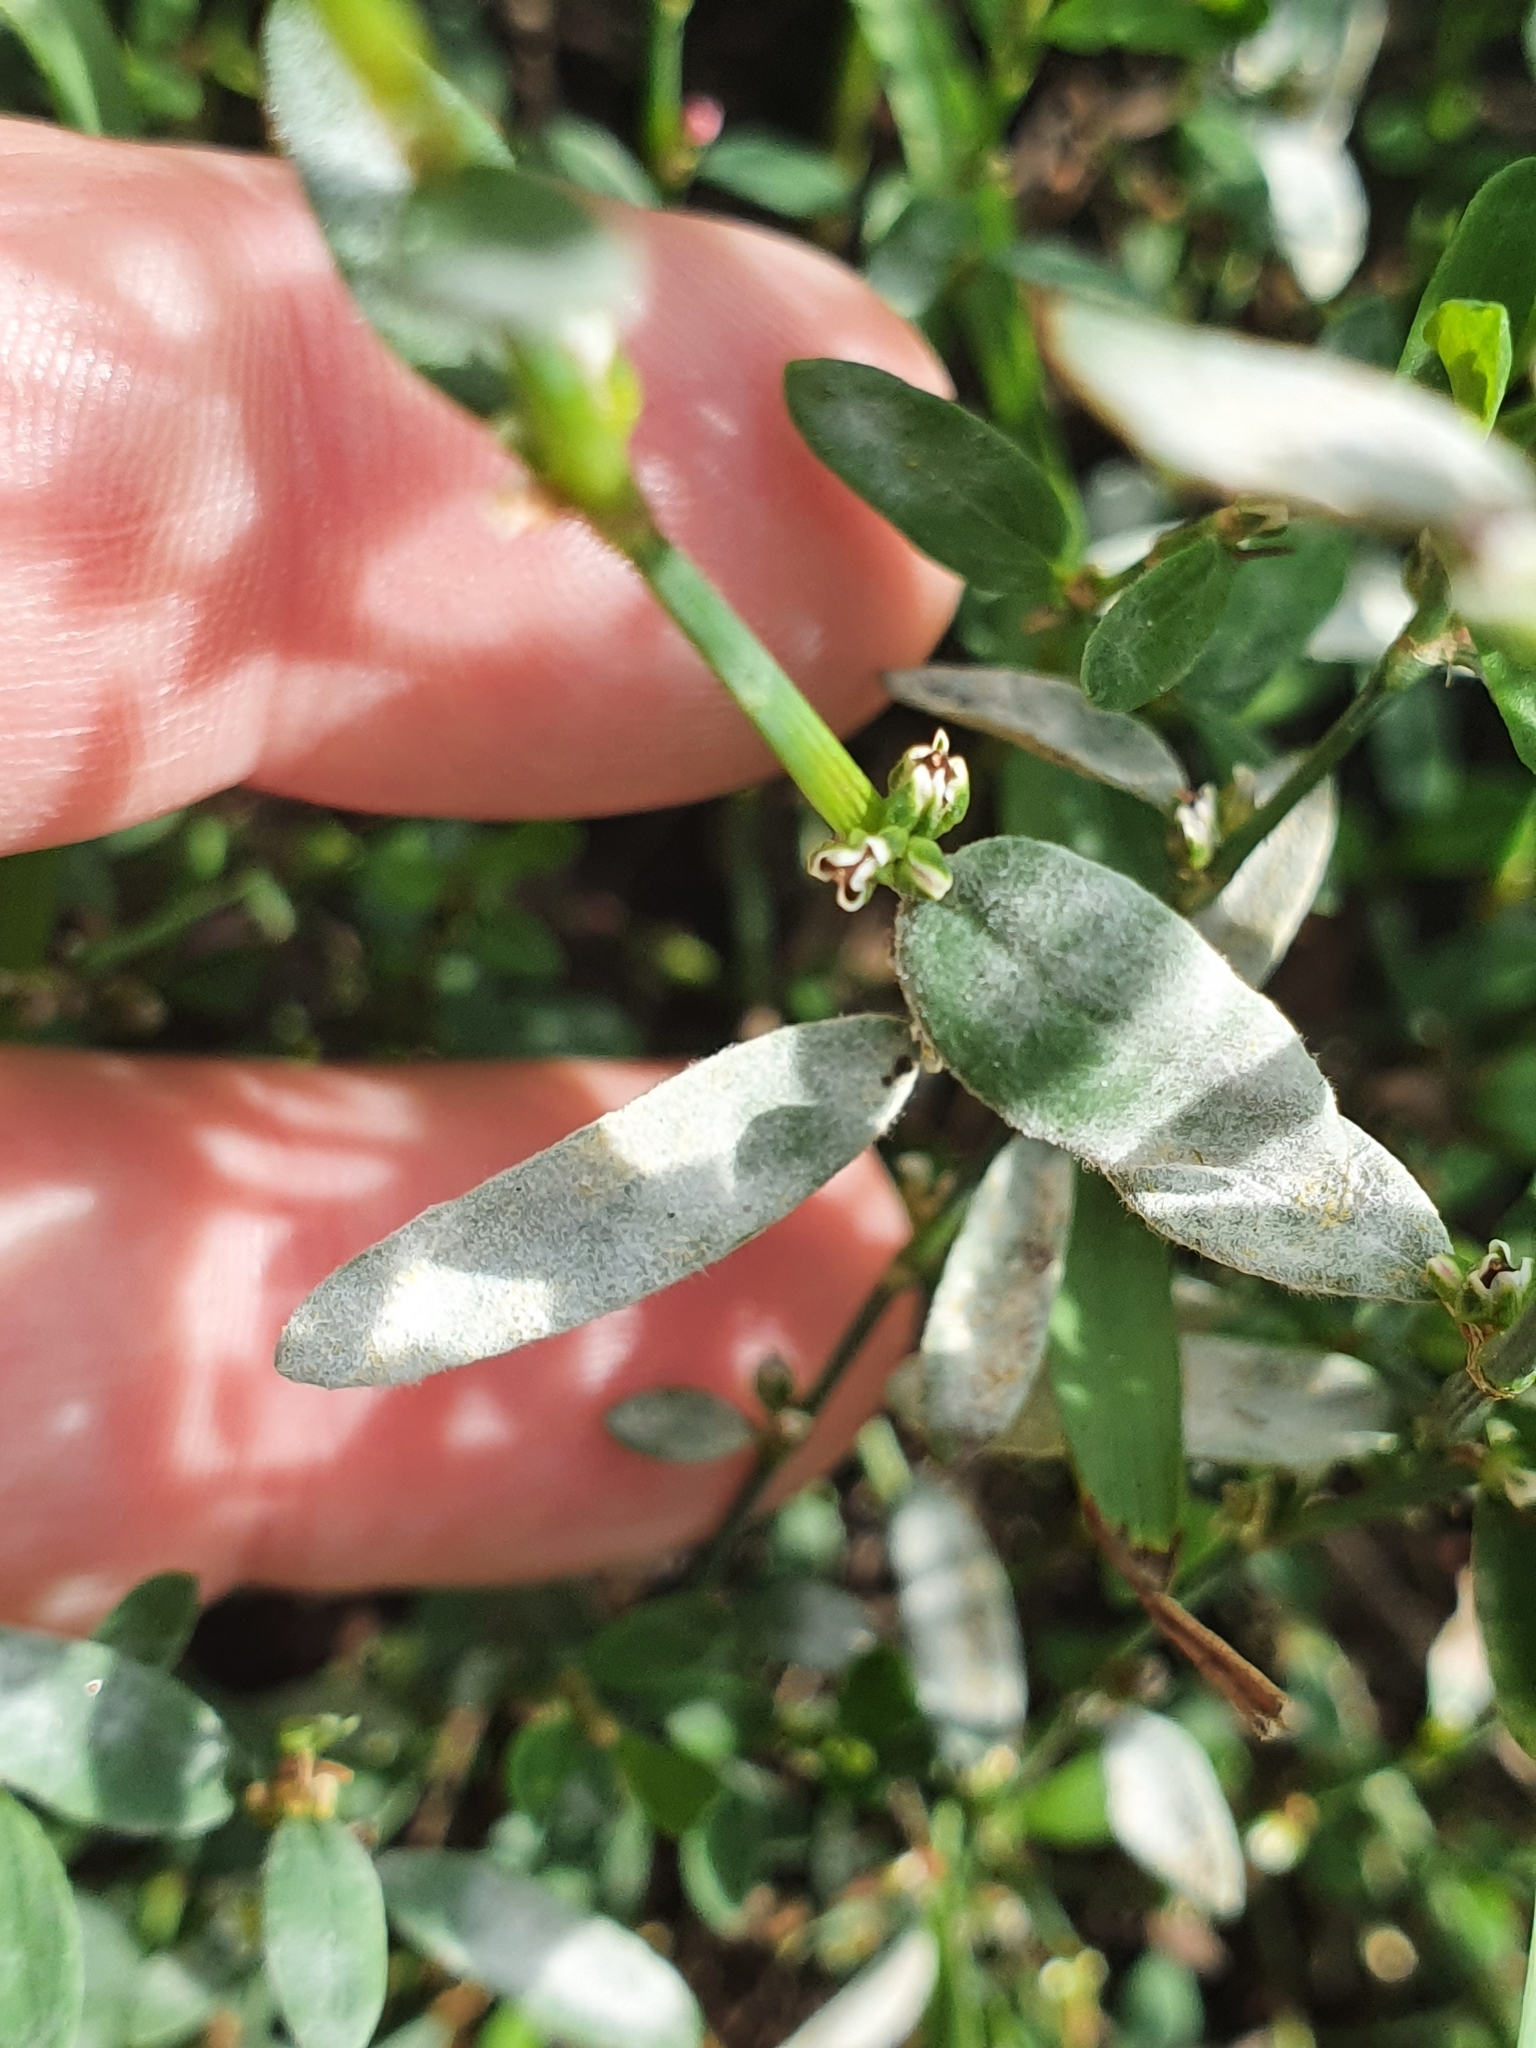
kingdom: Fungi
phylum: Ascomycota
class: Leotiomycetes
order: Helotiales
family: Erysiphaceae
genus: Erysiphe
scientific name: Erysiphe polygoni
